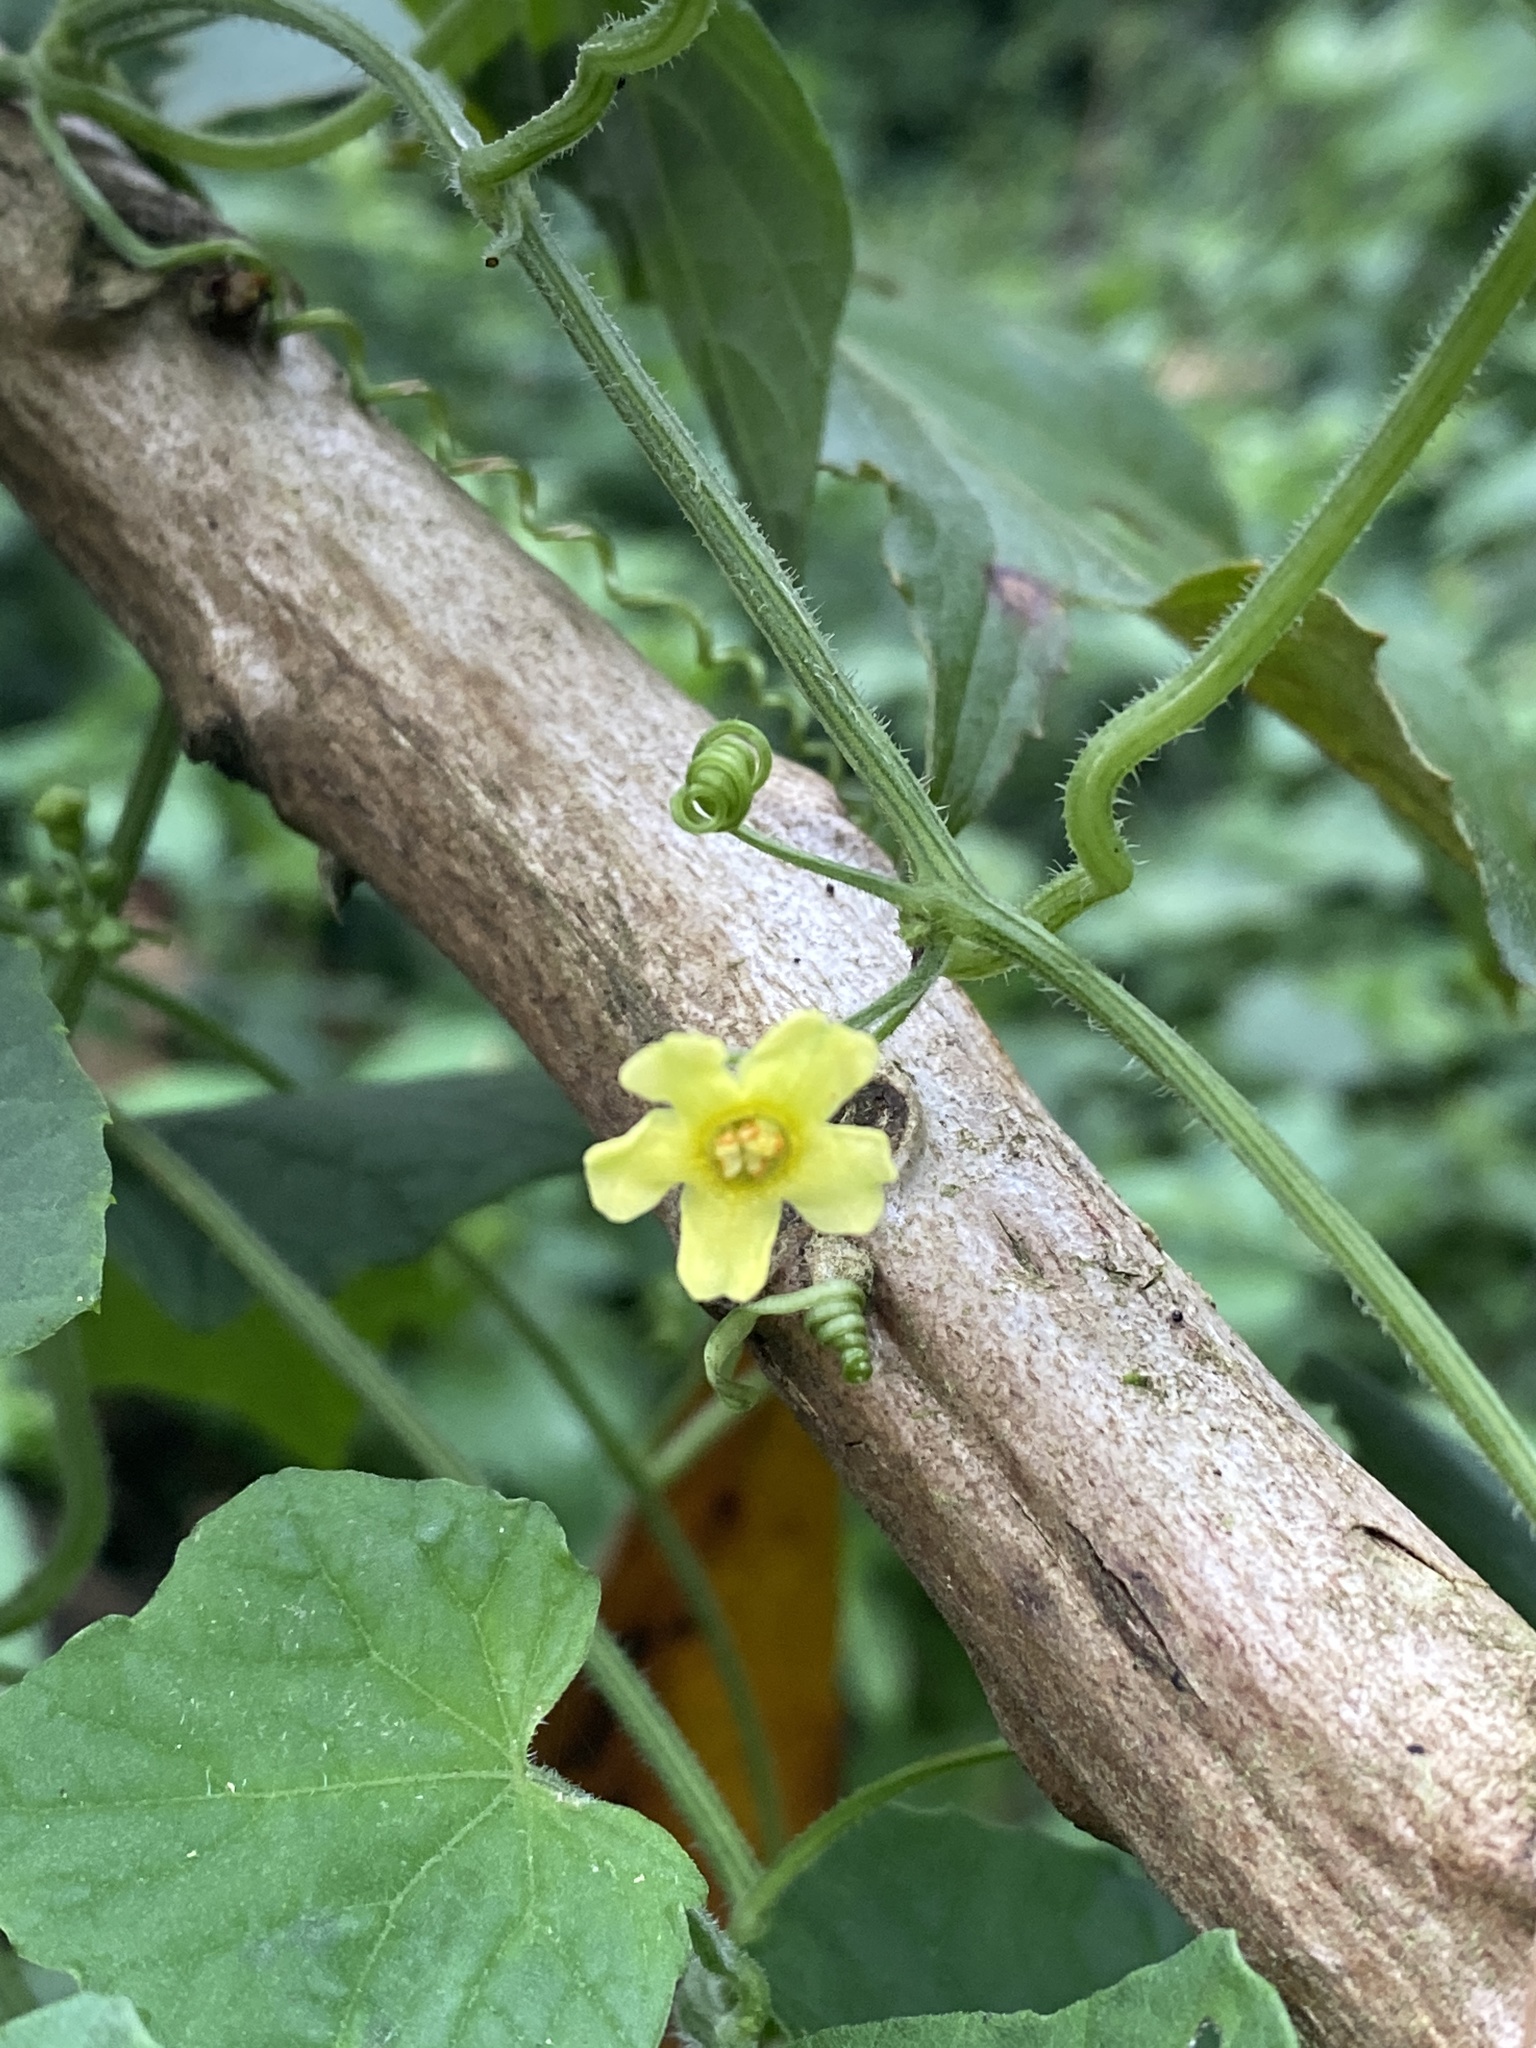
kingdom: Plantae
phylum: Tracheophyta
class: Magnoliopsida
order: Cucurbitales
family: Cucurbitaceae
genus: Melothria
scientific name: Melothria scabra
